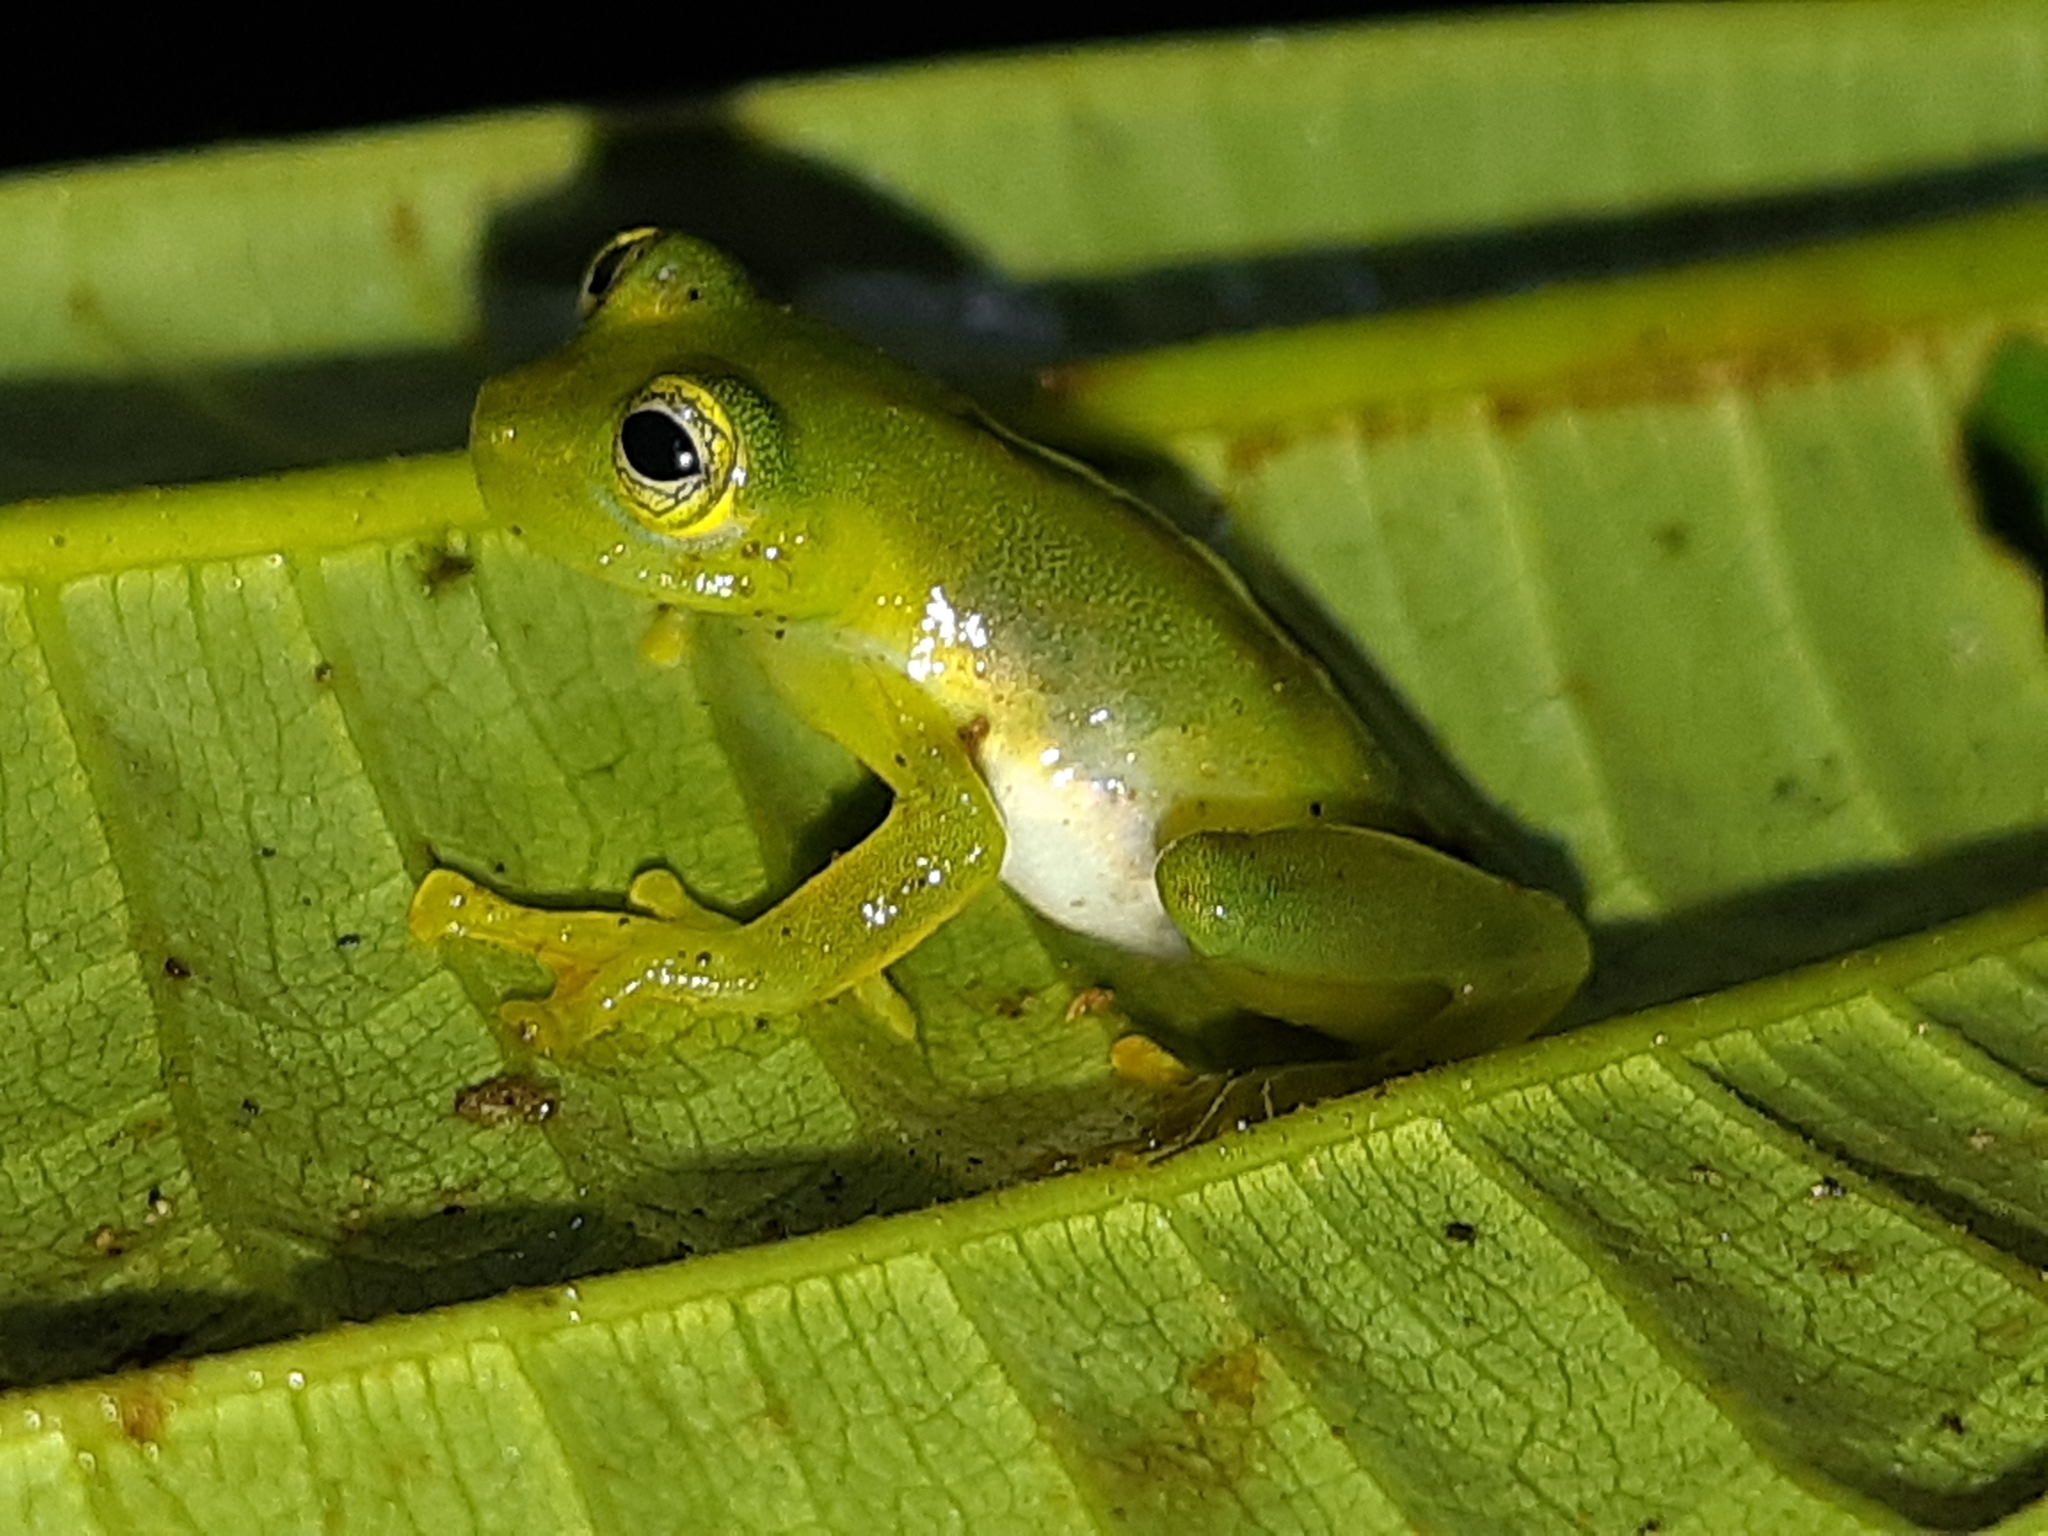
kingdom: Animalia
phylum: Chordata
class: Amphibia
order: Anura
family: Centrolenidae
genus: Teratohyla
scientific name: Teratohyla spinosa
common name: Spiny cochran frog
